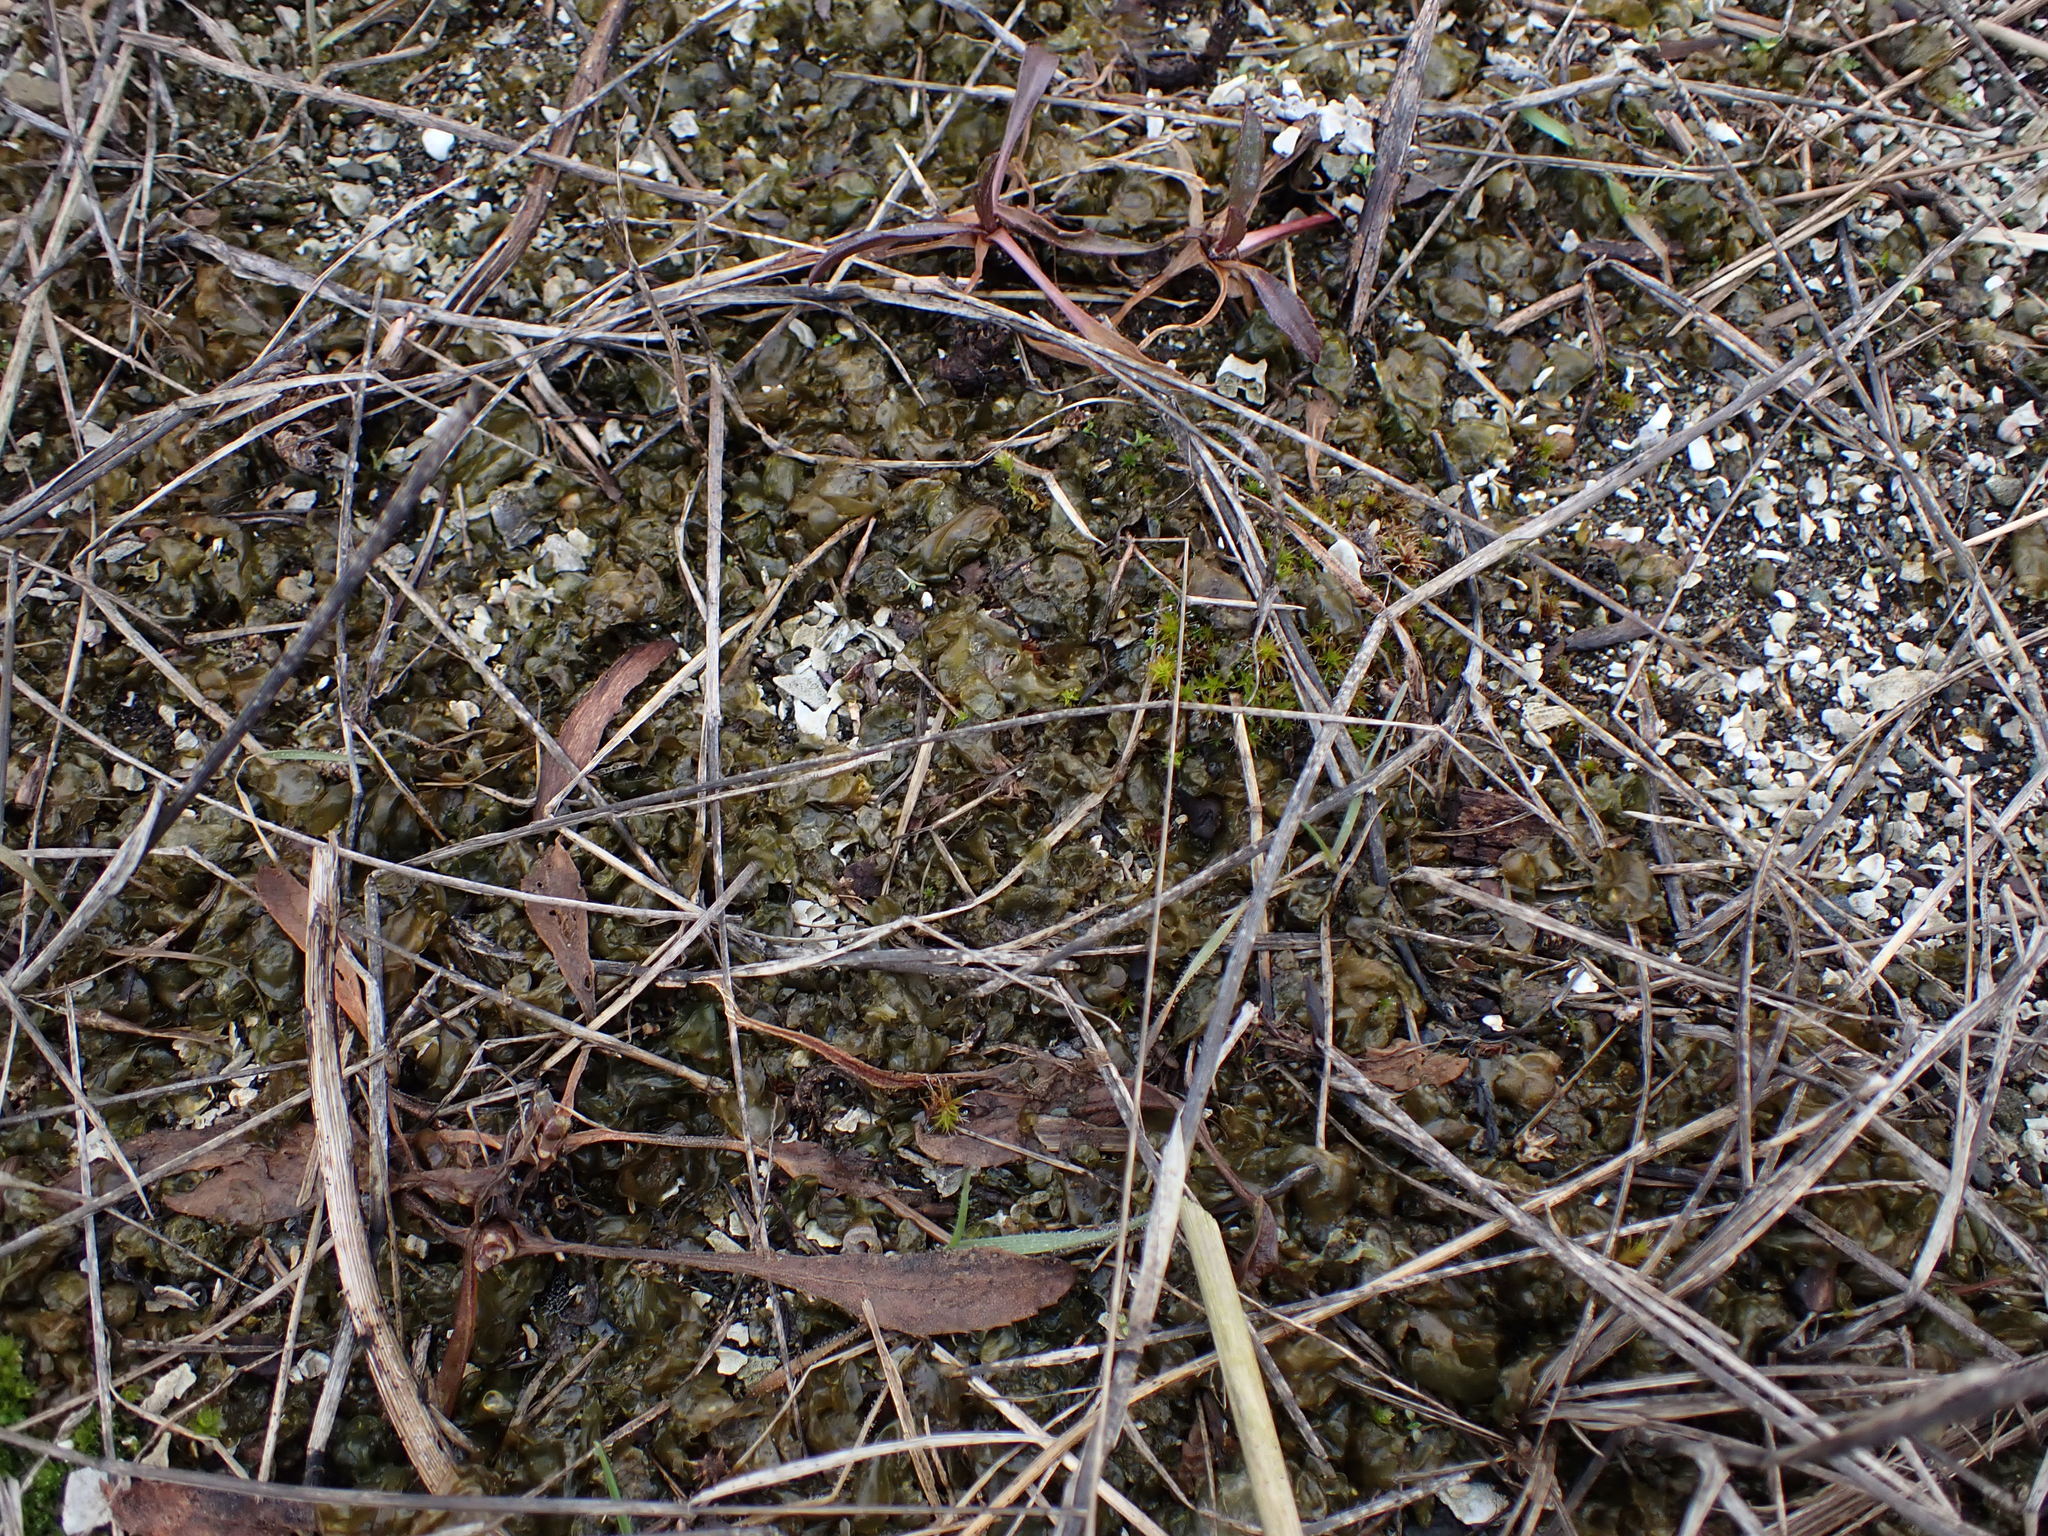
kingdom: Bacteria
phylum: Cyanobacteria
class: Cyanobacteriia
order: Cyanobacteriales
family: Nostocaceae
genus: Nostoc
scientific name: Nostoc commune
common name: Star jelly
